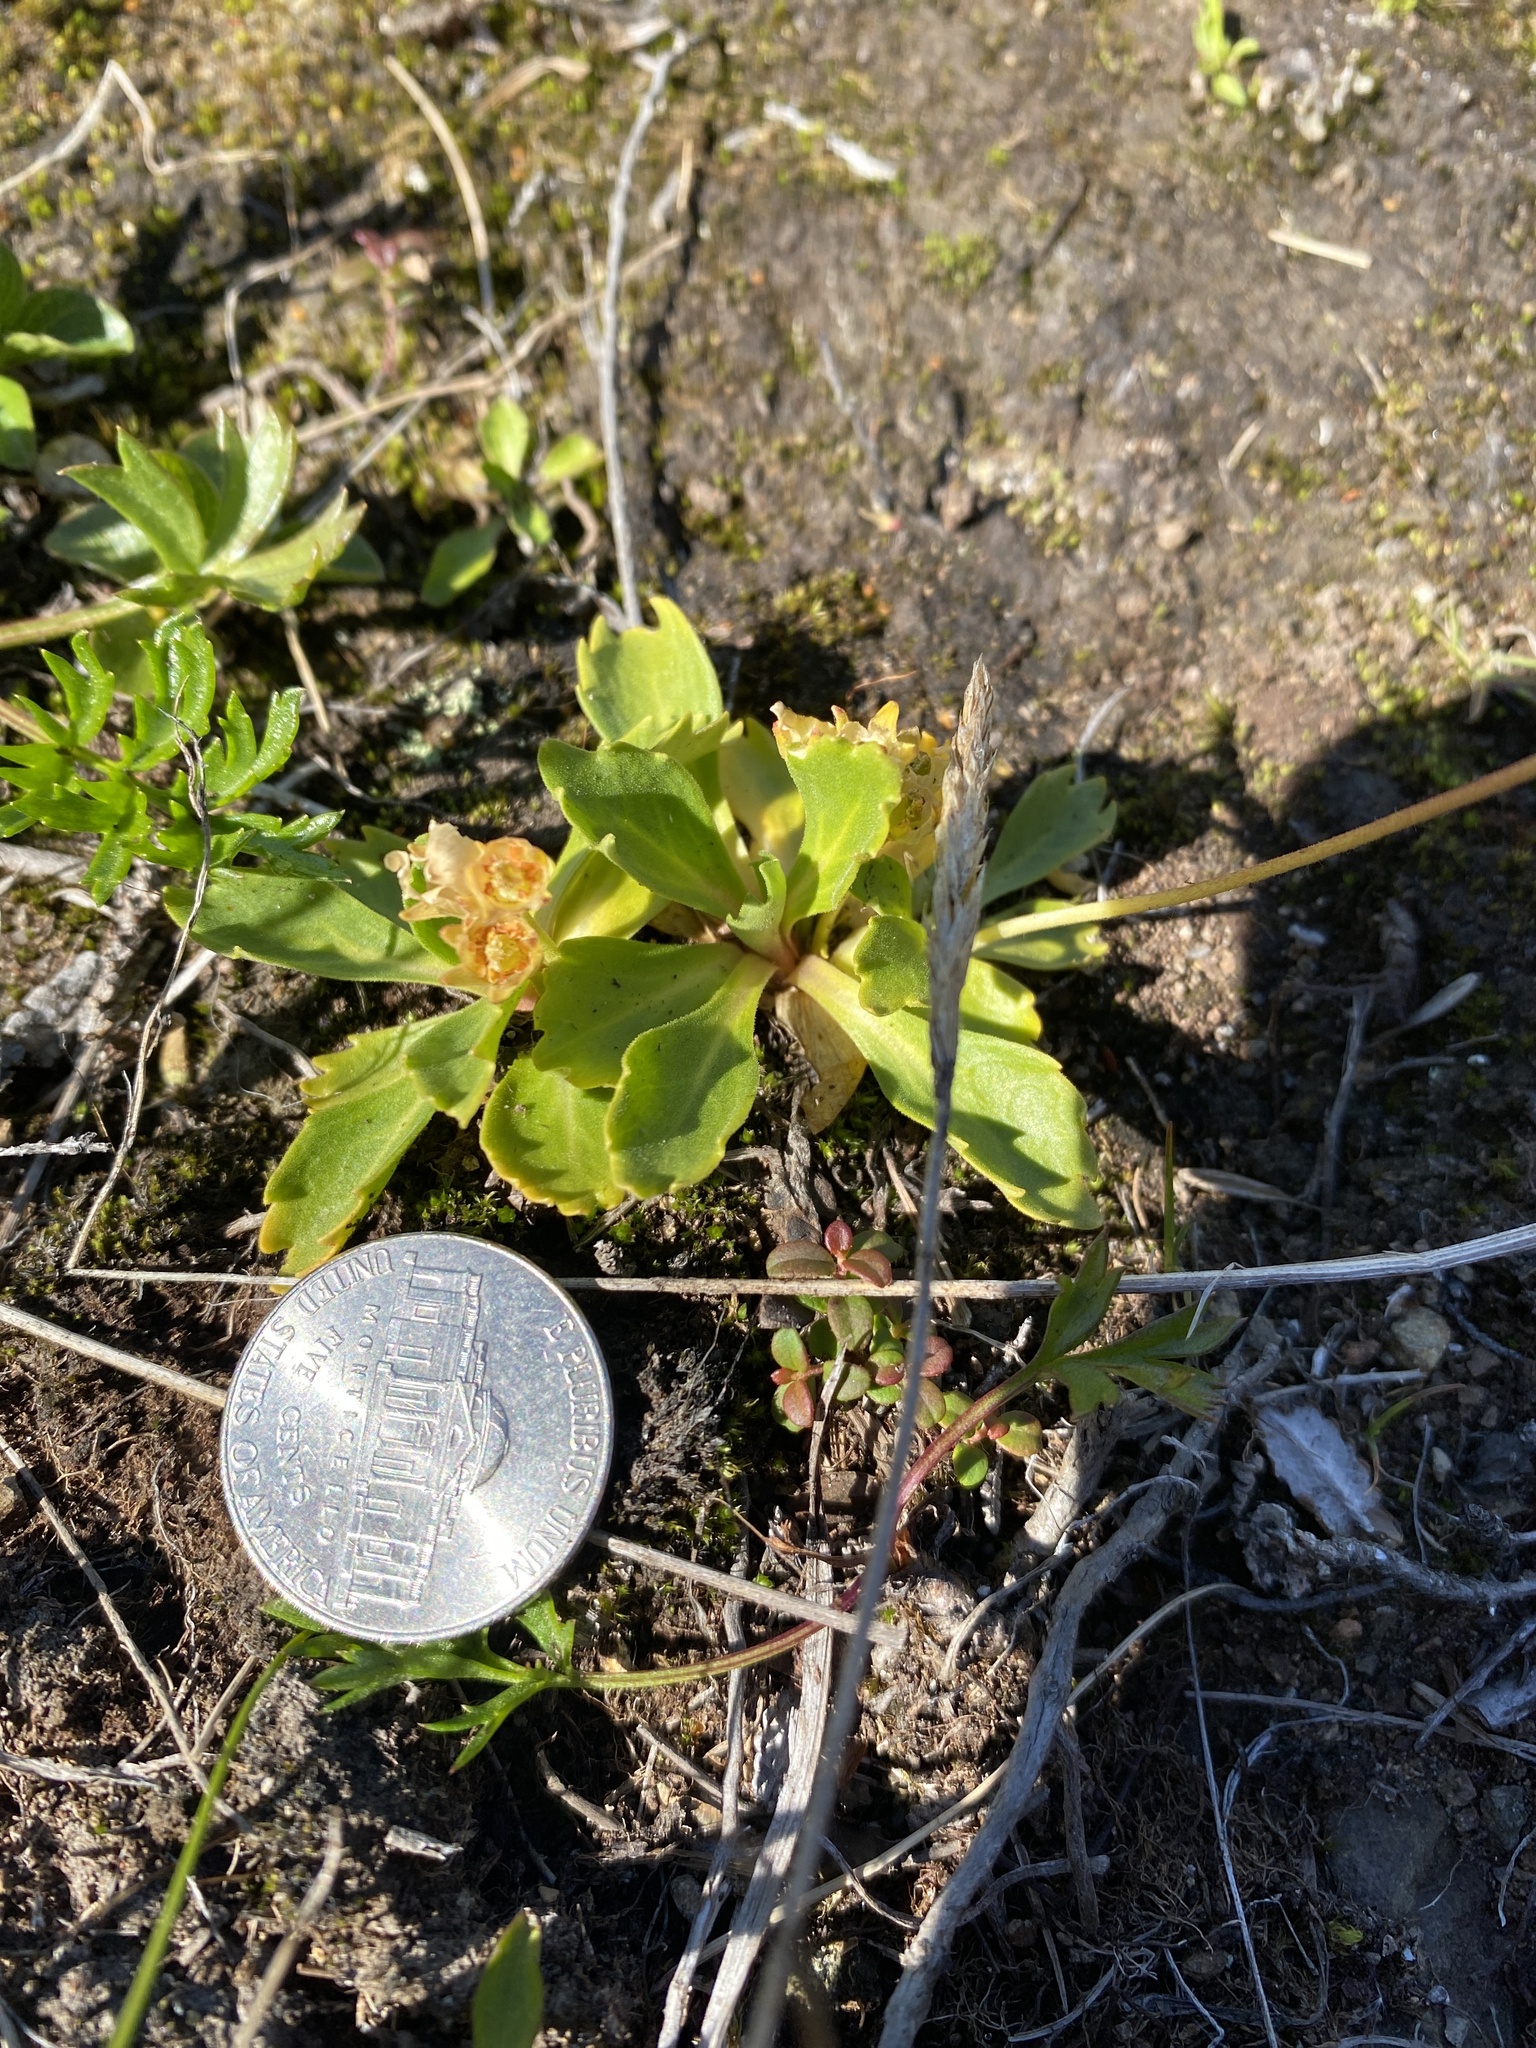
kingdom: Plantae
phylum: Tracheophyta
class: Magnoliopsida
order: Ericales
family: Primulaceae
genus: Primula
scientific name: Primula cuneifolia
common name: Wedge-leaved primrose
